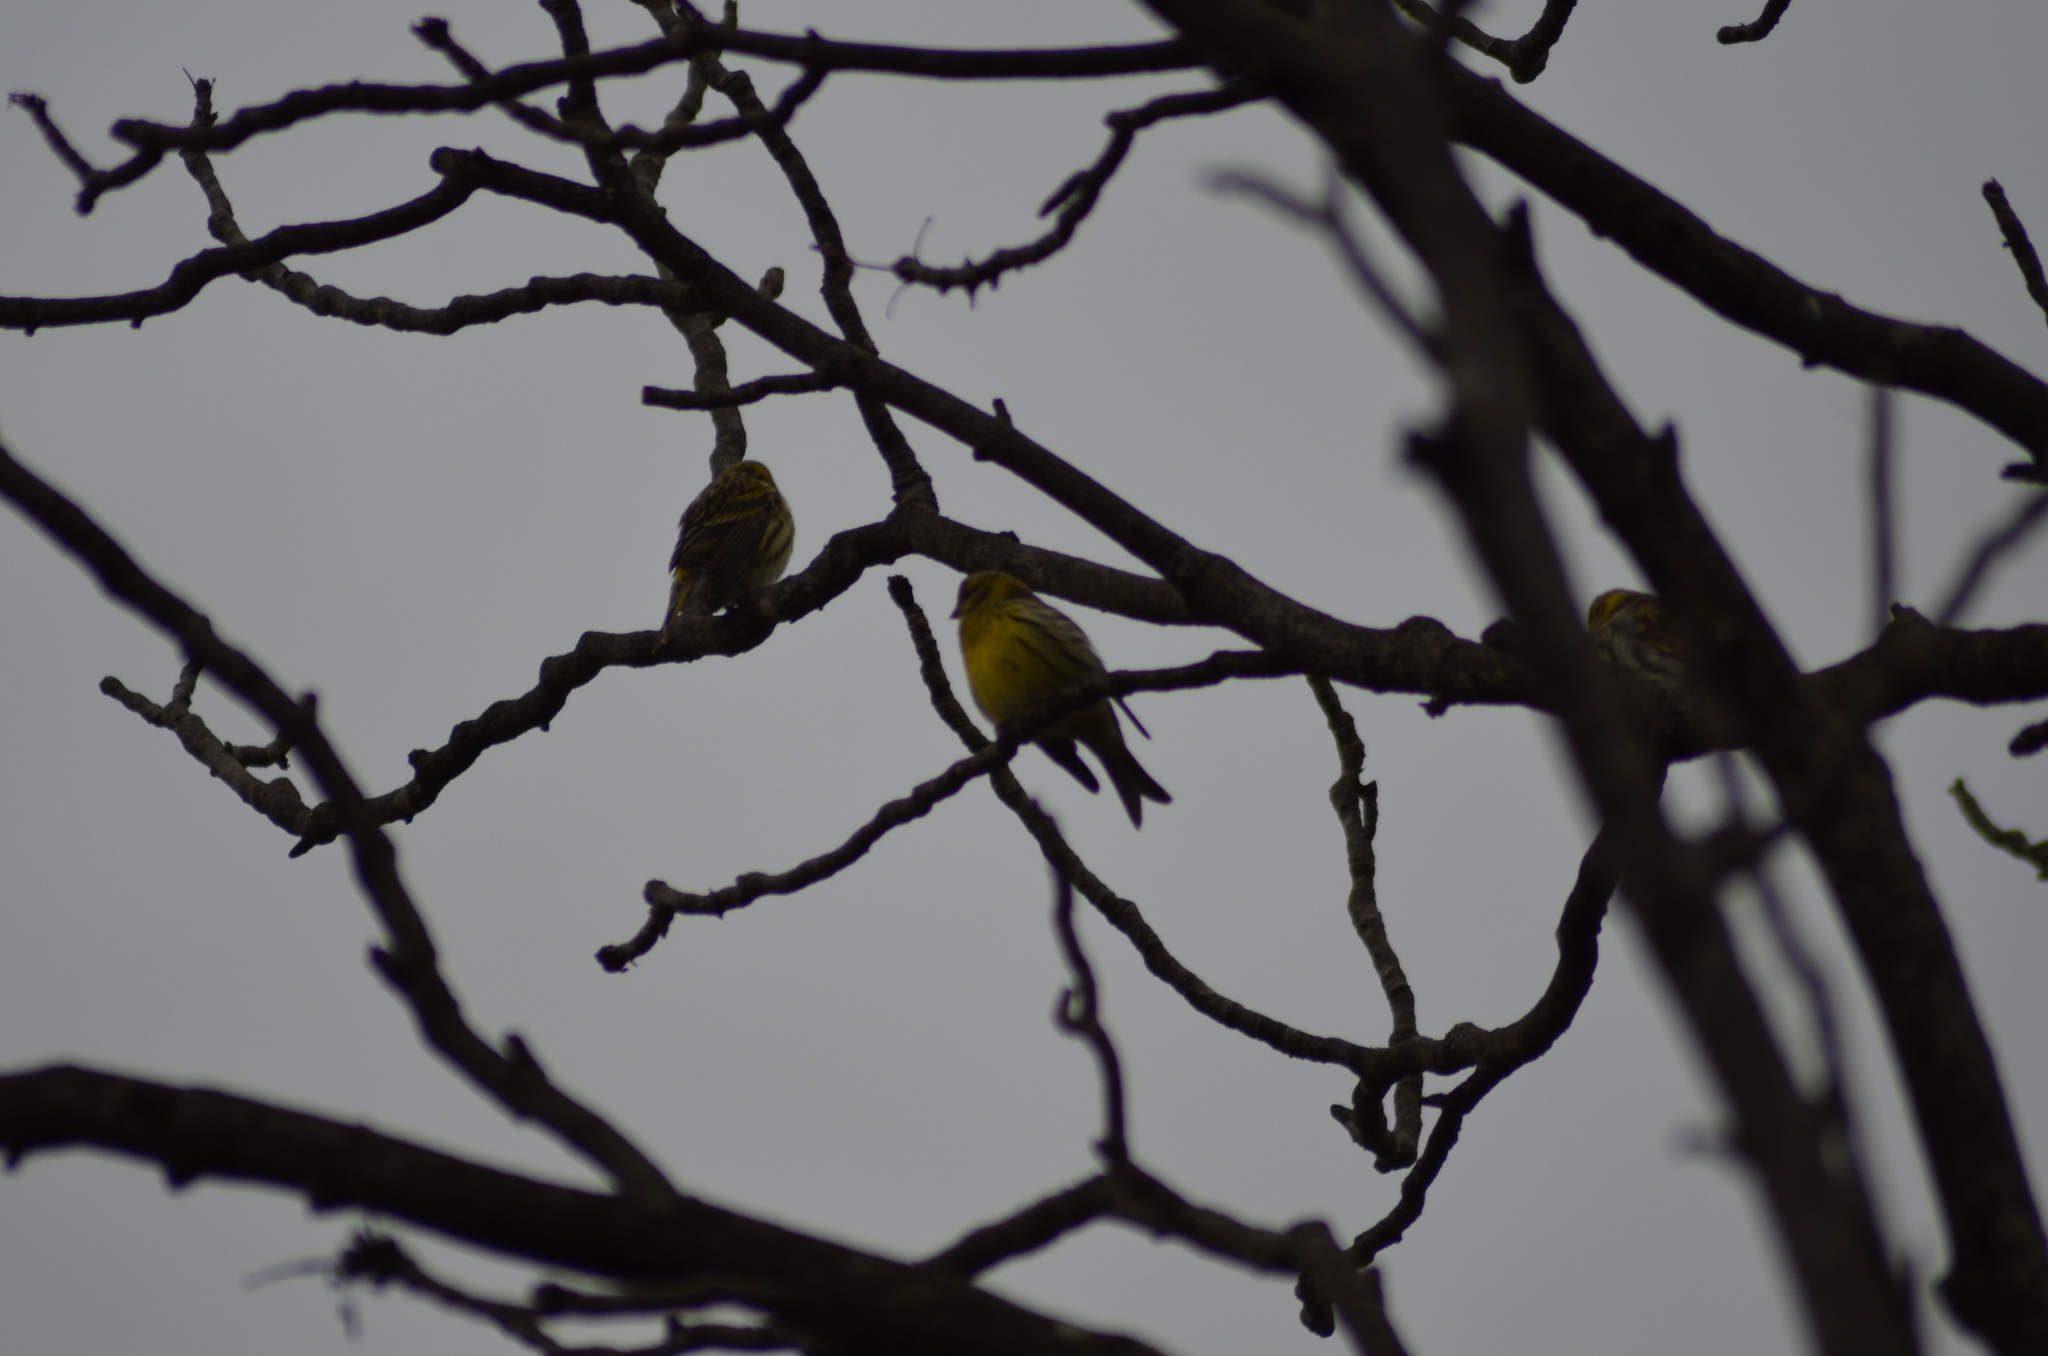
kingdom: Animalia
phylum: Chordata
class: Aves
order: Passeriformes
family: Fringillidae
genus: Serinus
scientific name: Serinus serinus
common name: European serin
